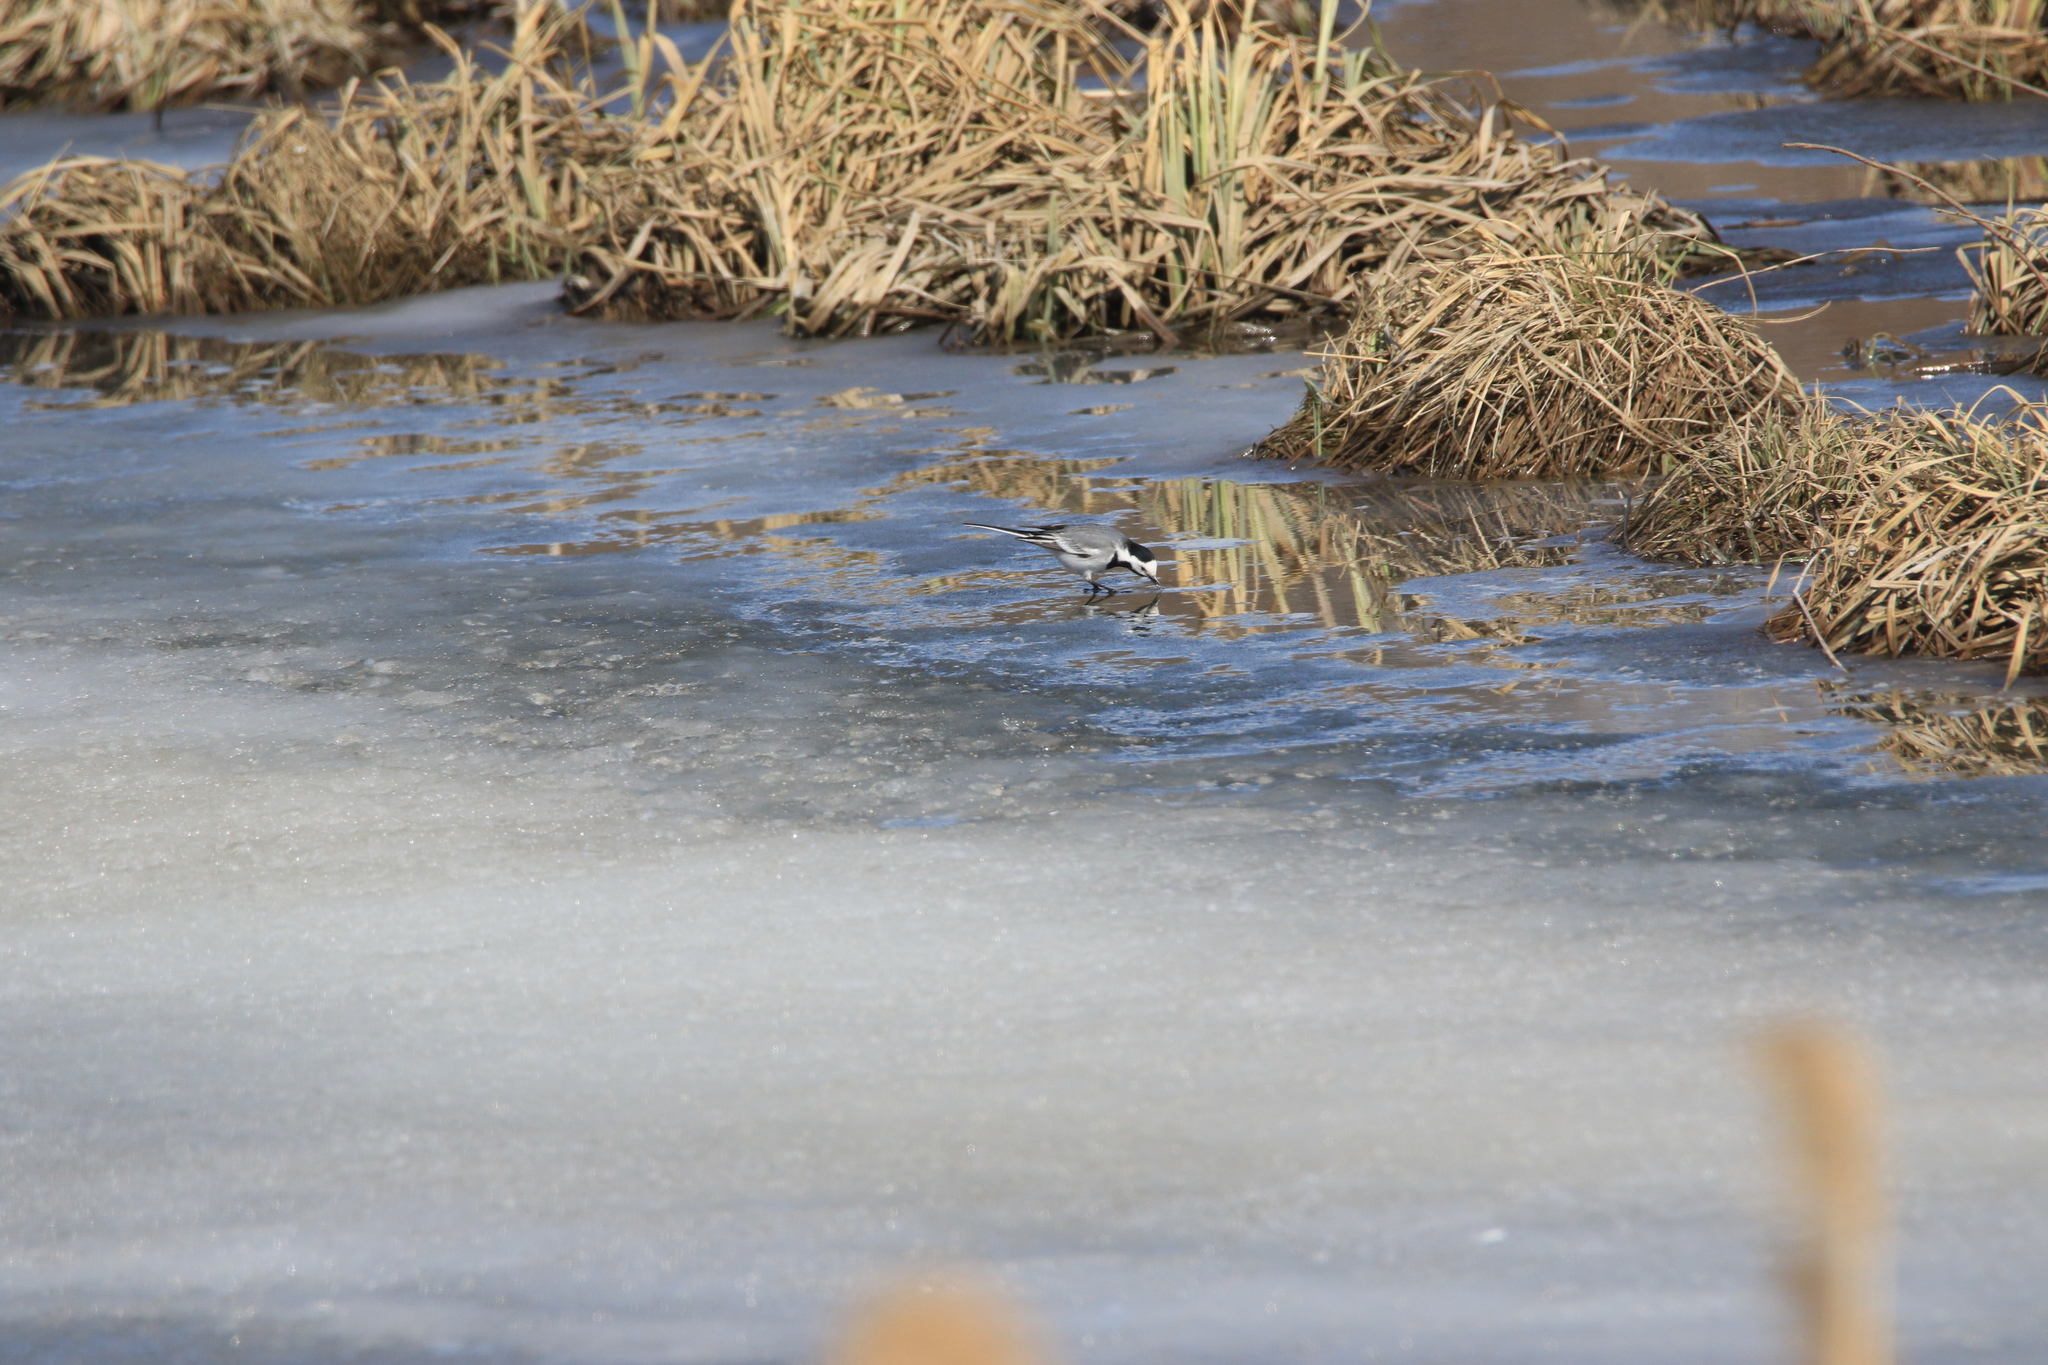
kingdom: Animalia
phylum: Chordata
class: Aves
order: Passeriformes
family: Motacillidae
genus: Motacilla
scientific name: Motacilla alba
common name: White wagtail
